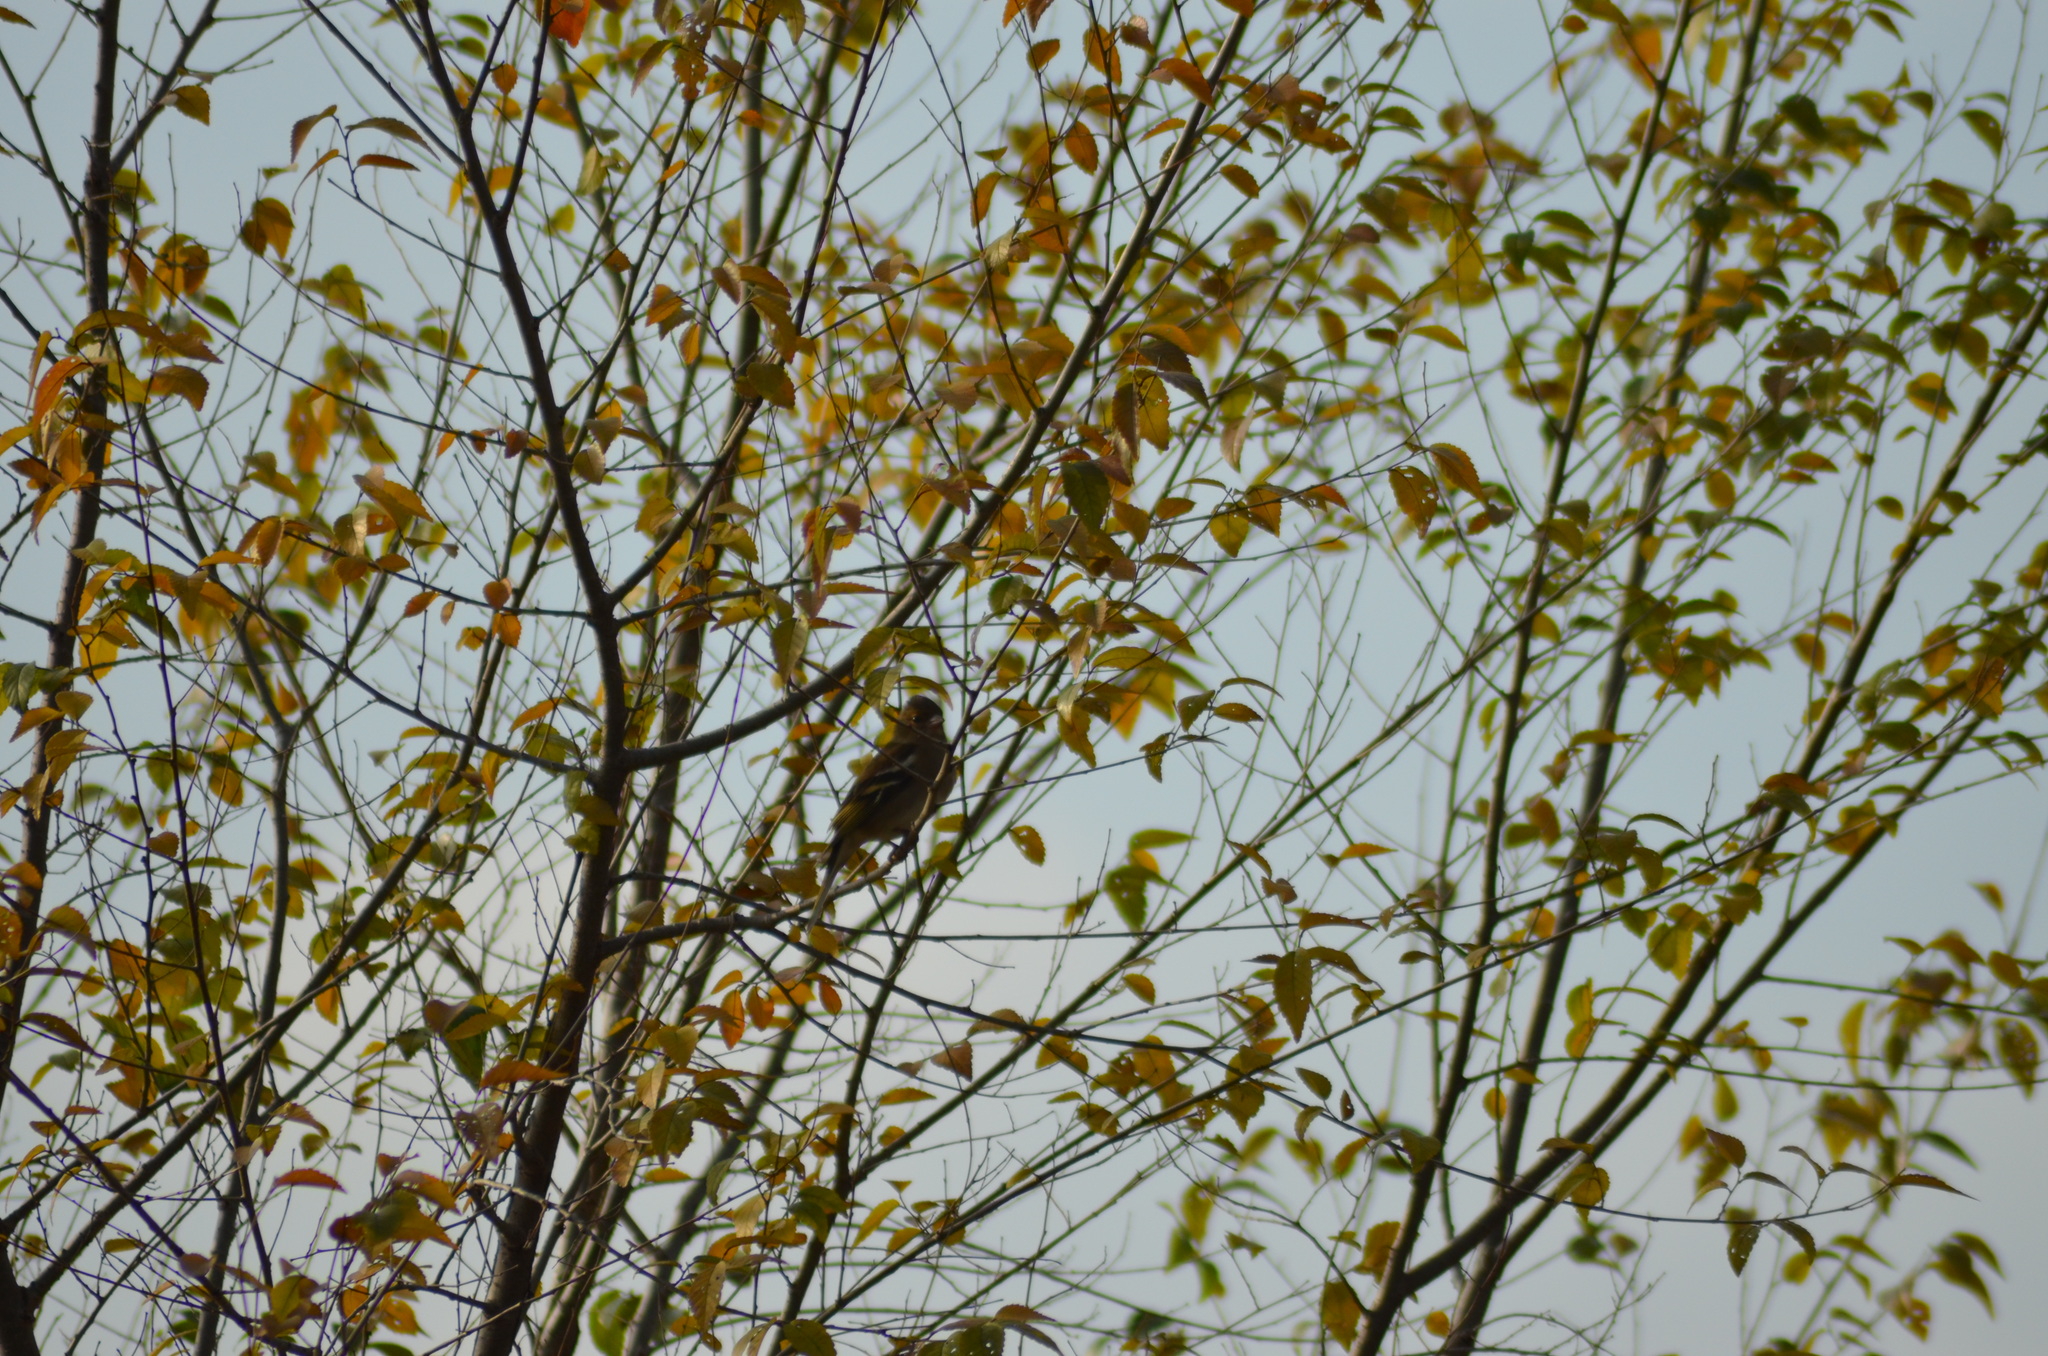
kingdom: Animalia
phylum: Chordata
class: Aves
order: Passeriformes
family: Fringillidae
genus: Fringilla
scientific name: Fringilla coelebs
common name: Common chaffinch
